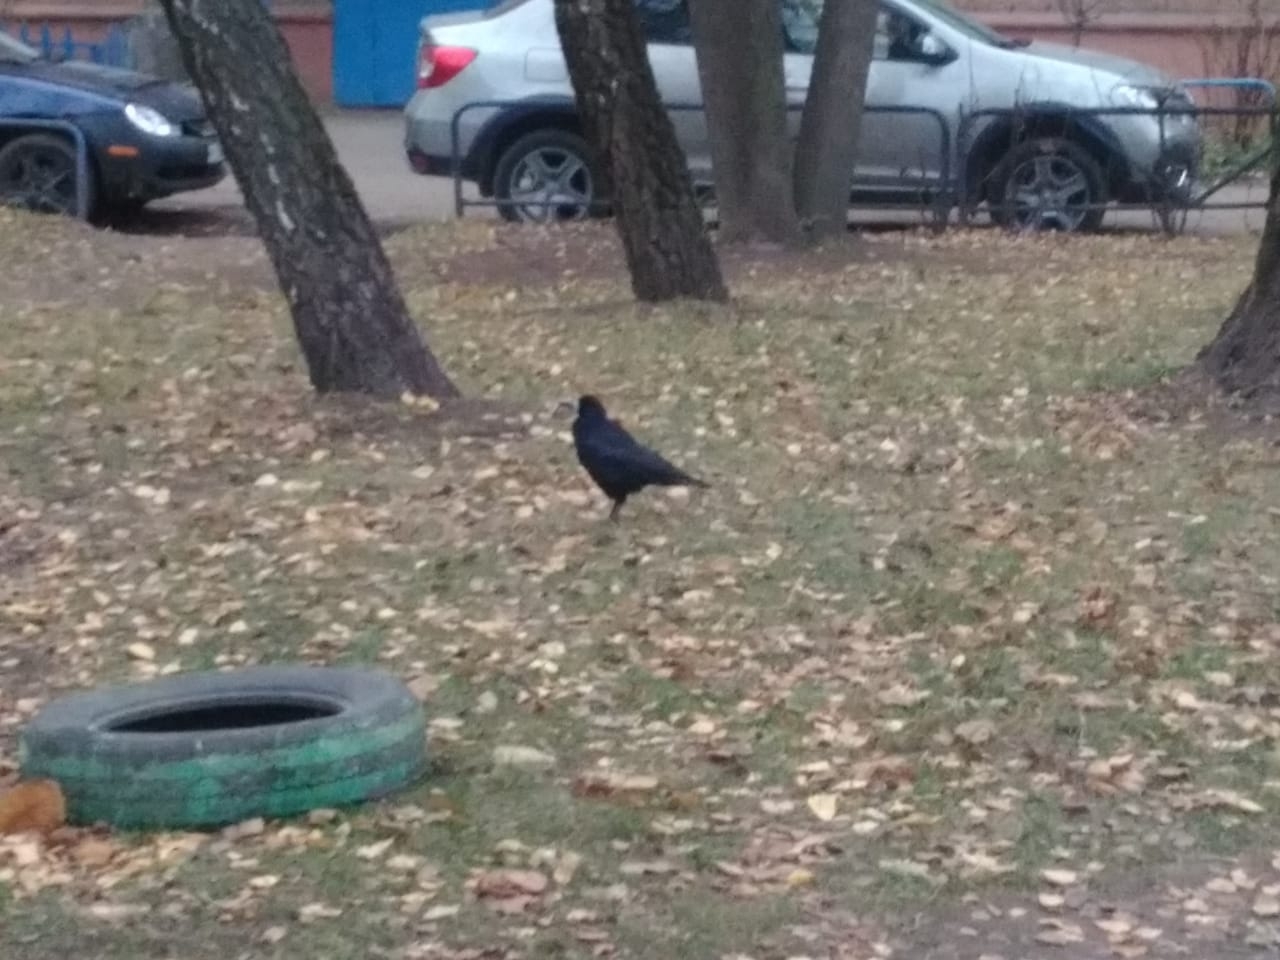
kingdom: Animalia
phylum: Chordata
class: Aves
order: Passeriformes
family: Corvidae
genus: Corvus
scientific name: Corvus frugilegus
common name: Rook
